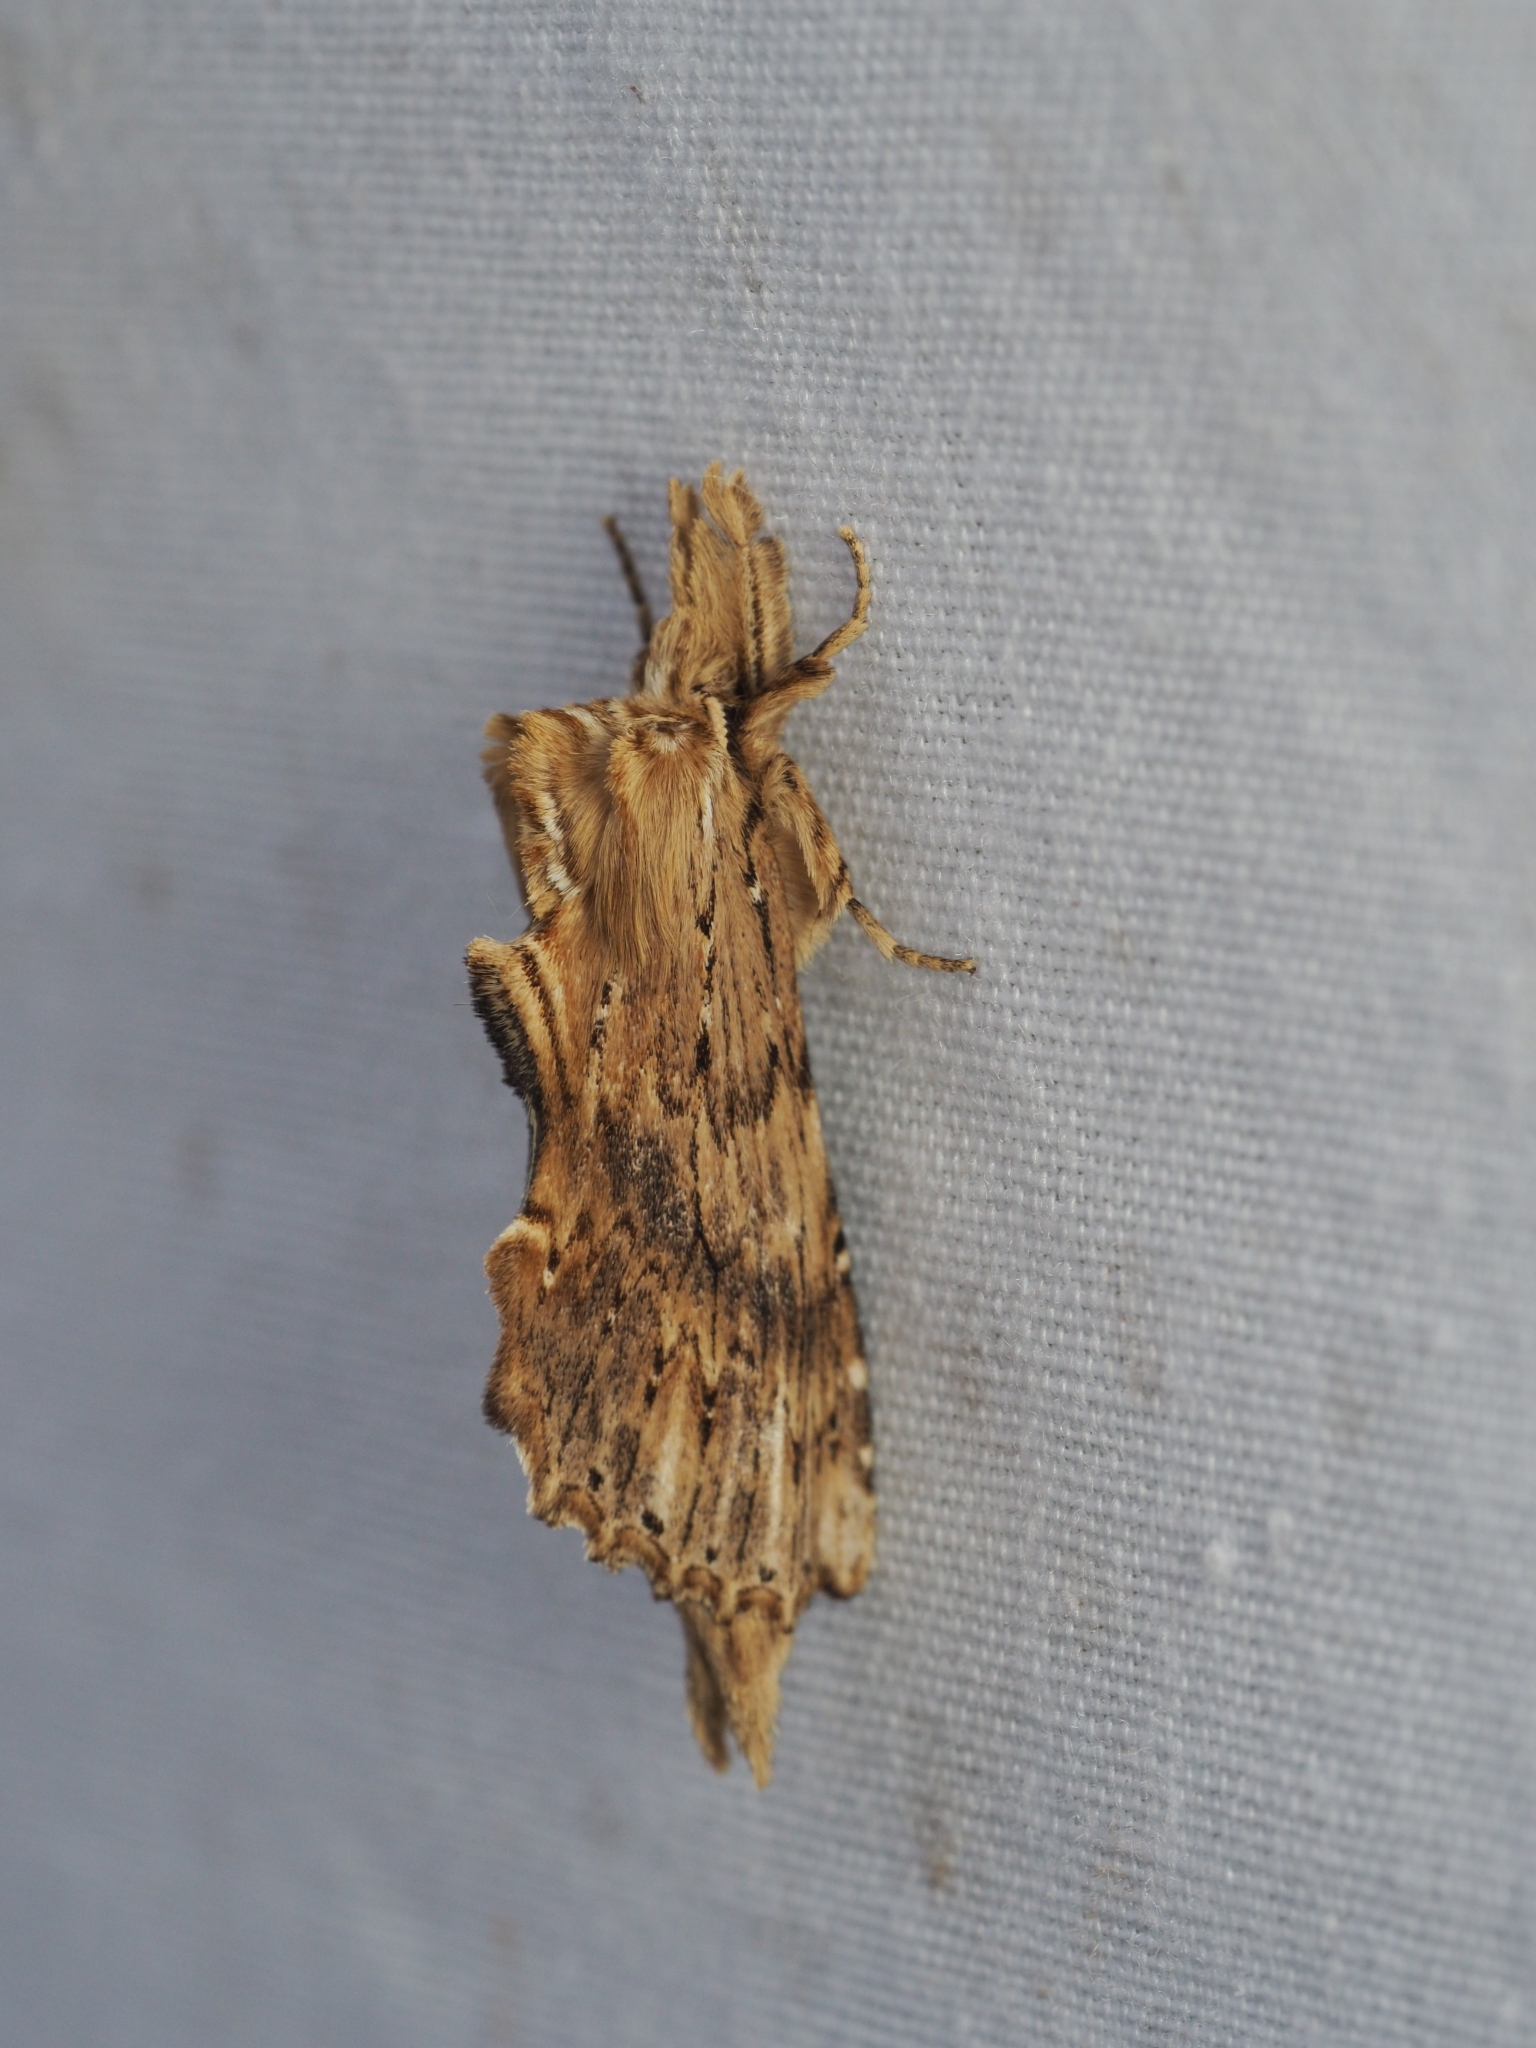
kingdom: Animalia
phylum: Arthropoda
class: Insecta
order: Lepidoptera
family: Notodontidae
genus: Pterostoma
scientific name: Pterostoma palpina
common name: Pale prominent
